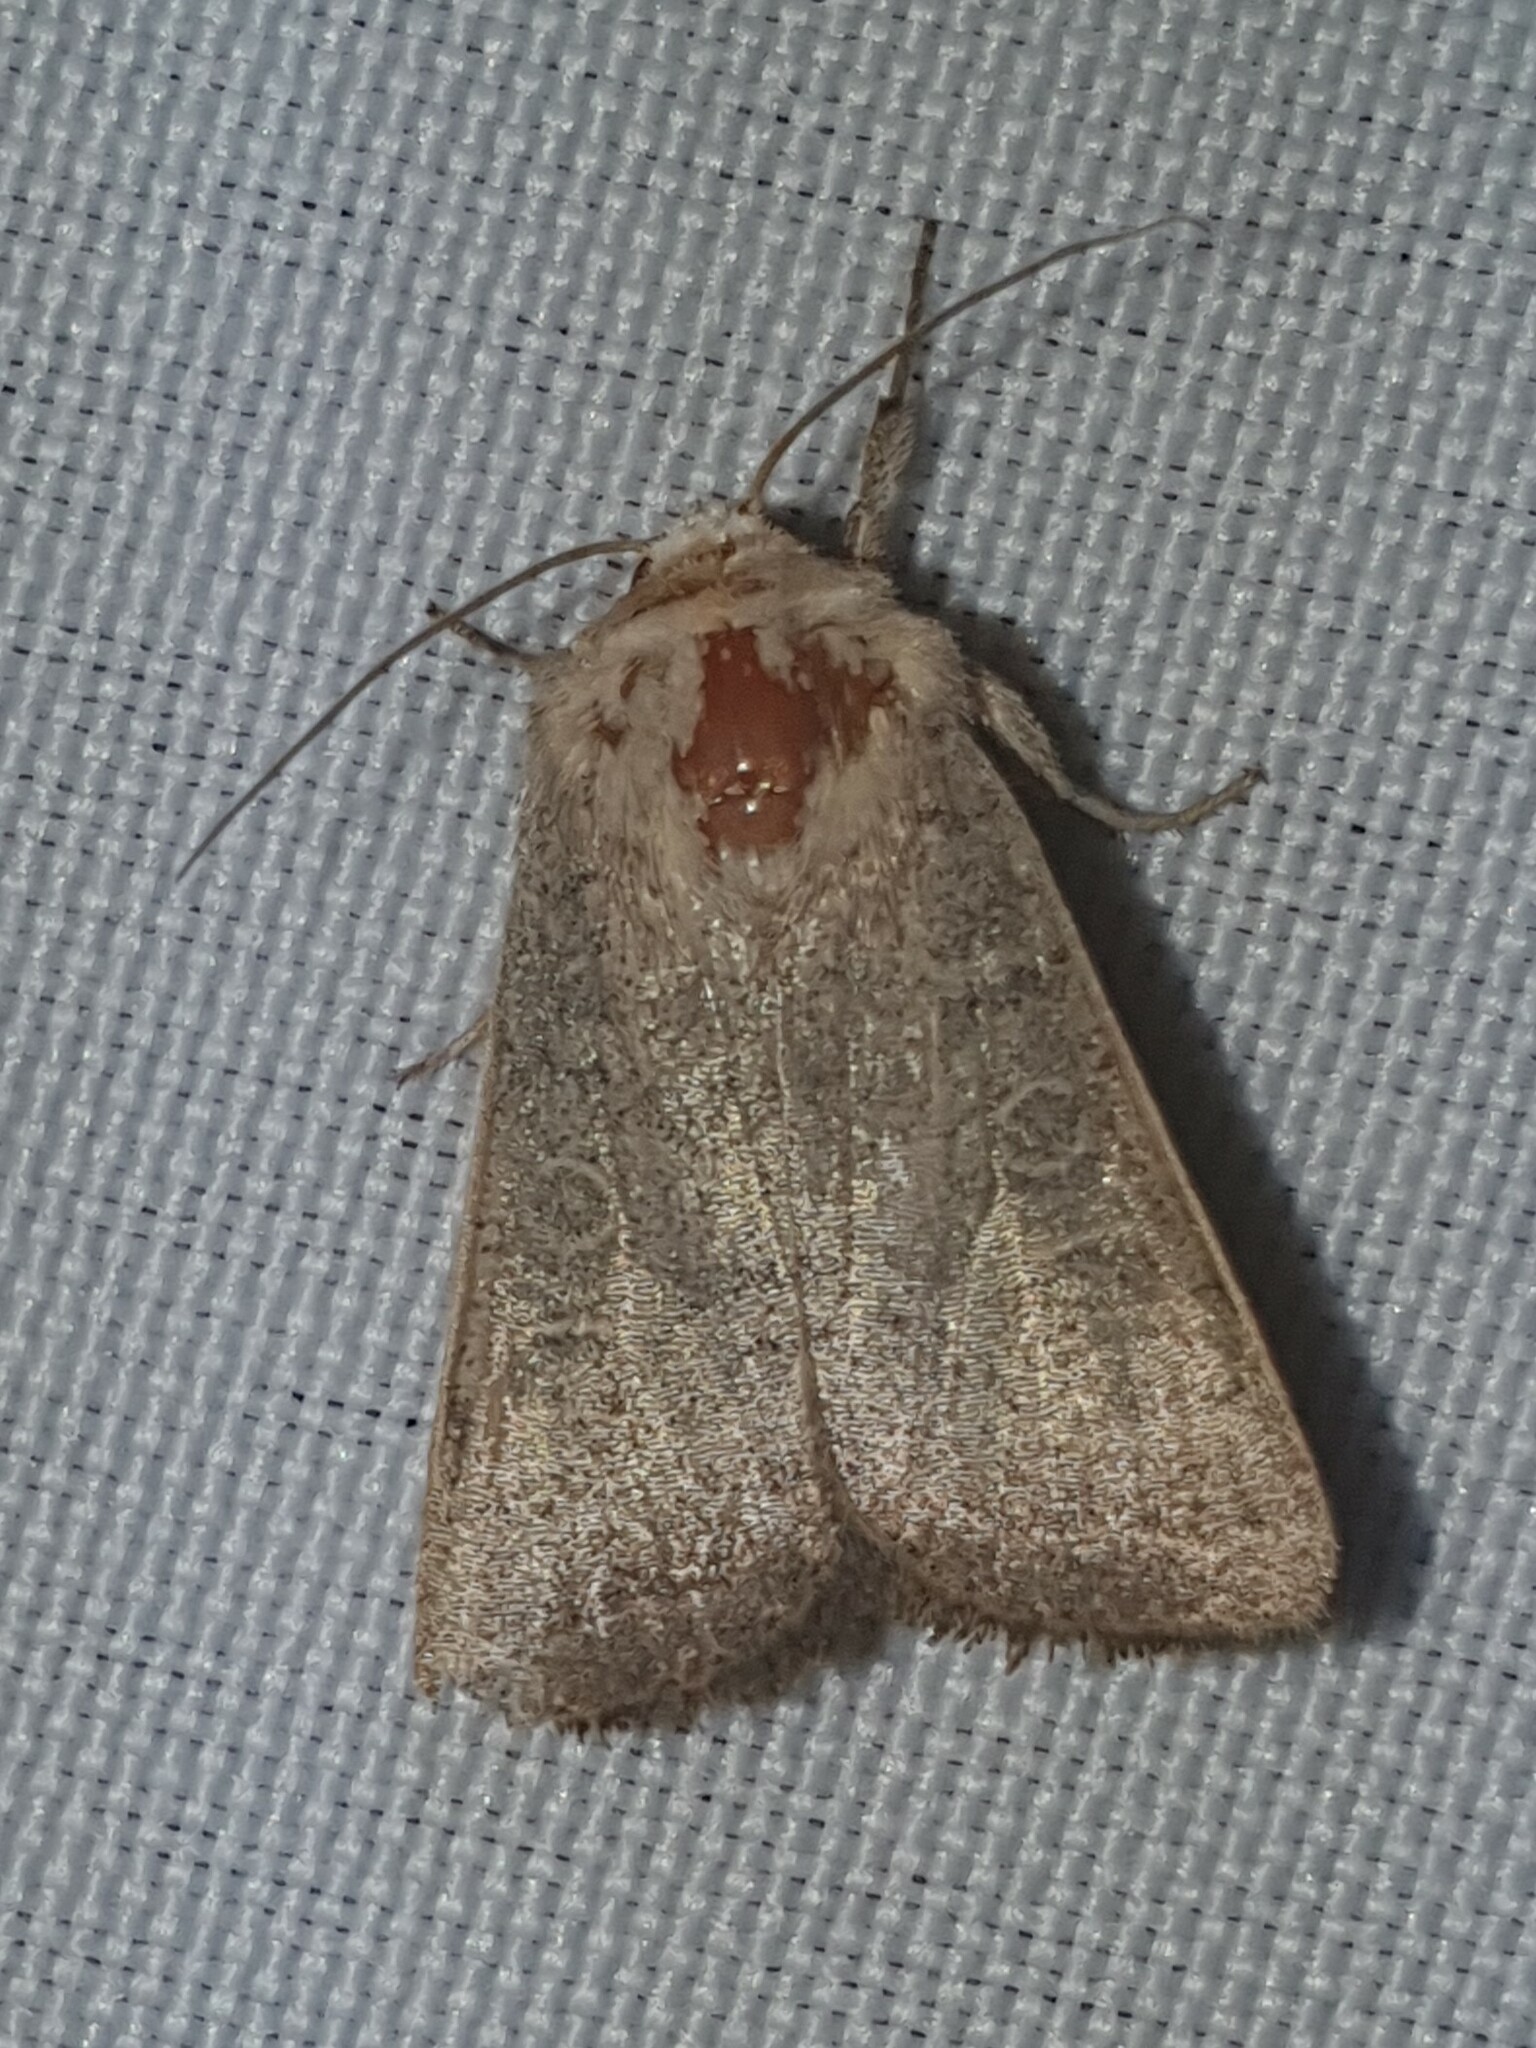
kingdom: Animalia
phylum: Arthropoda
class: Insecta
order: Lepidoptera
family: Noctuidae
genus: Hoplodrina
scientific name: Hoplodrina ambigua
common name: Vine's rustic
